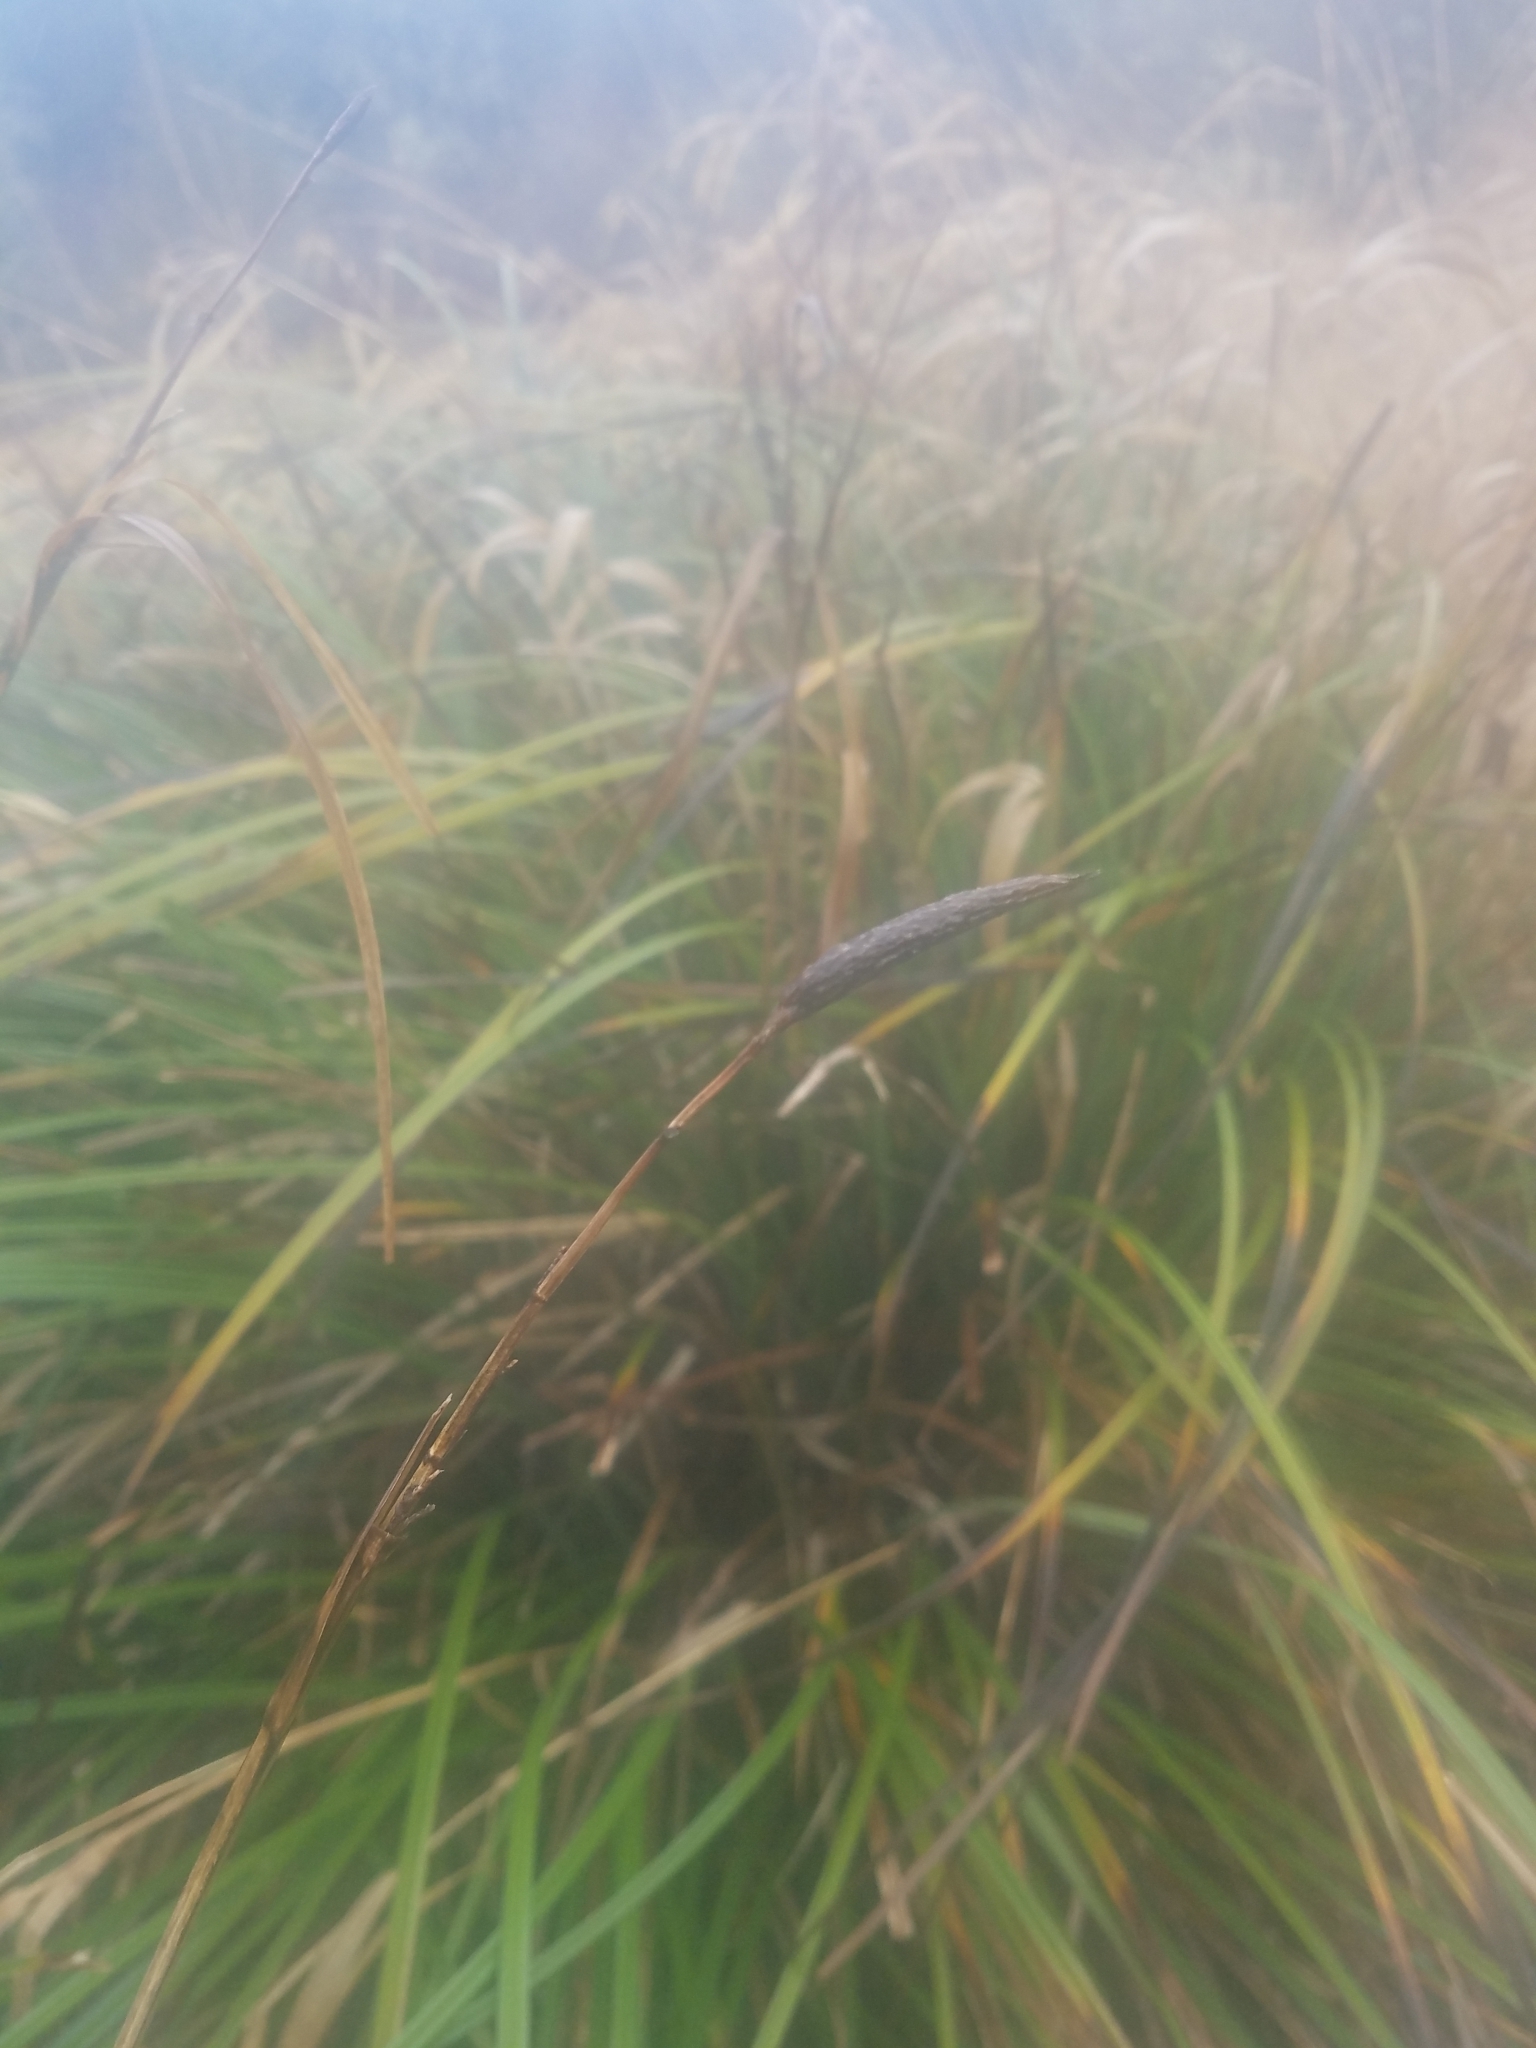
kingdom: Plantae
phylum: Tracheophyta
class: Liliopsida
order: Poales
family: Cyperaceae
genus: Carex
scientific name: Carex obnupta
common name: Slough sedge
